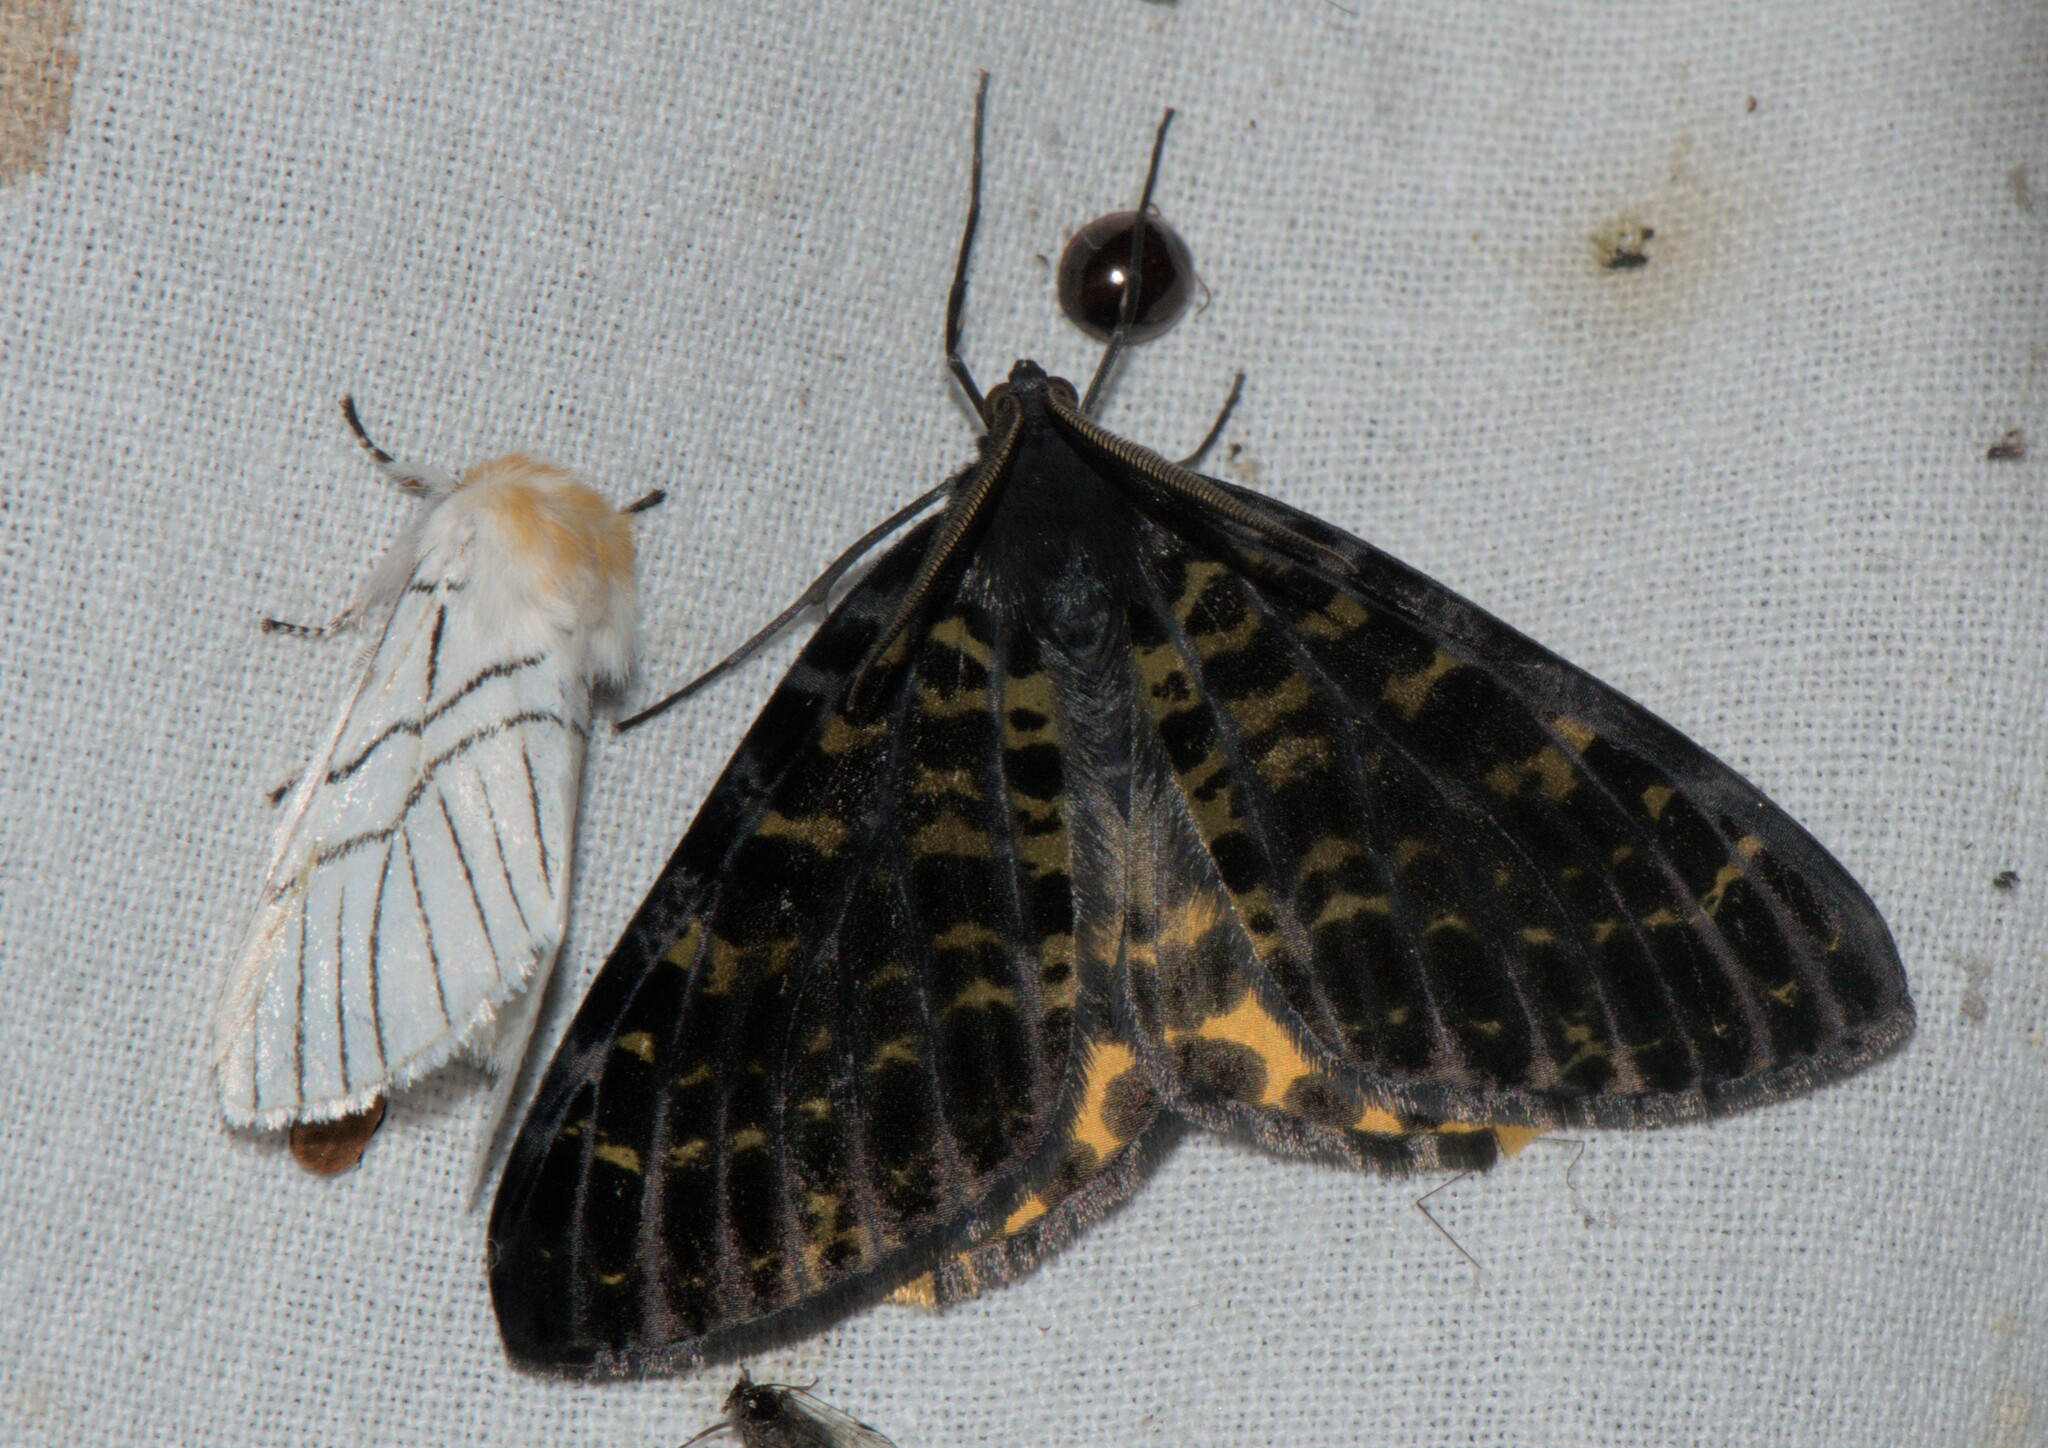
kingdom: Animalia
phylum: Arthropoda
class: Insecta
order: Lepidoptera
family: Geometridae
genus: Arichanna
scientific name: Arichanna flavinigra
